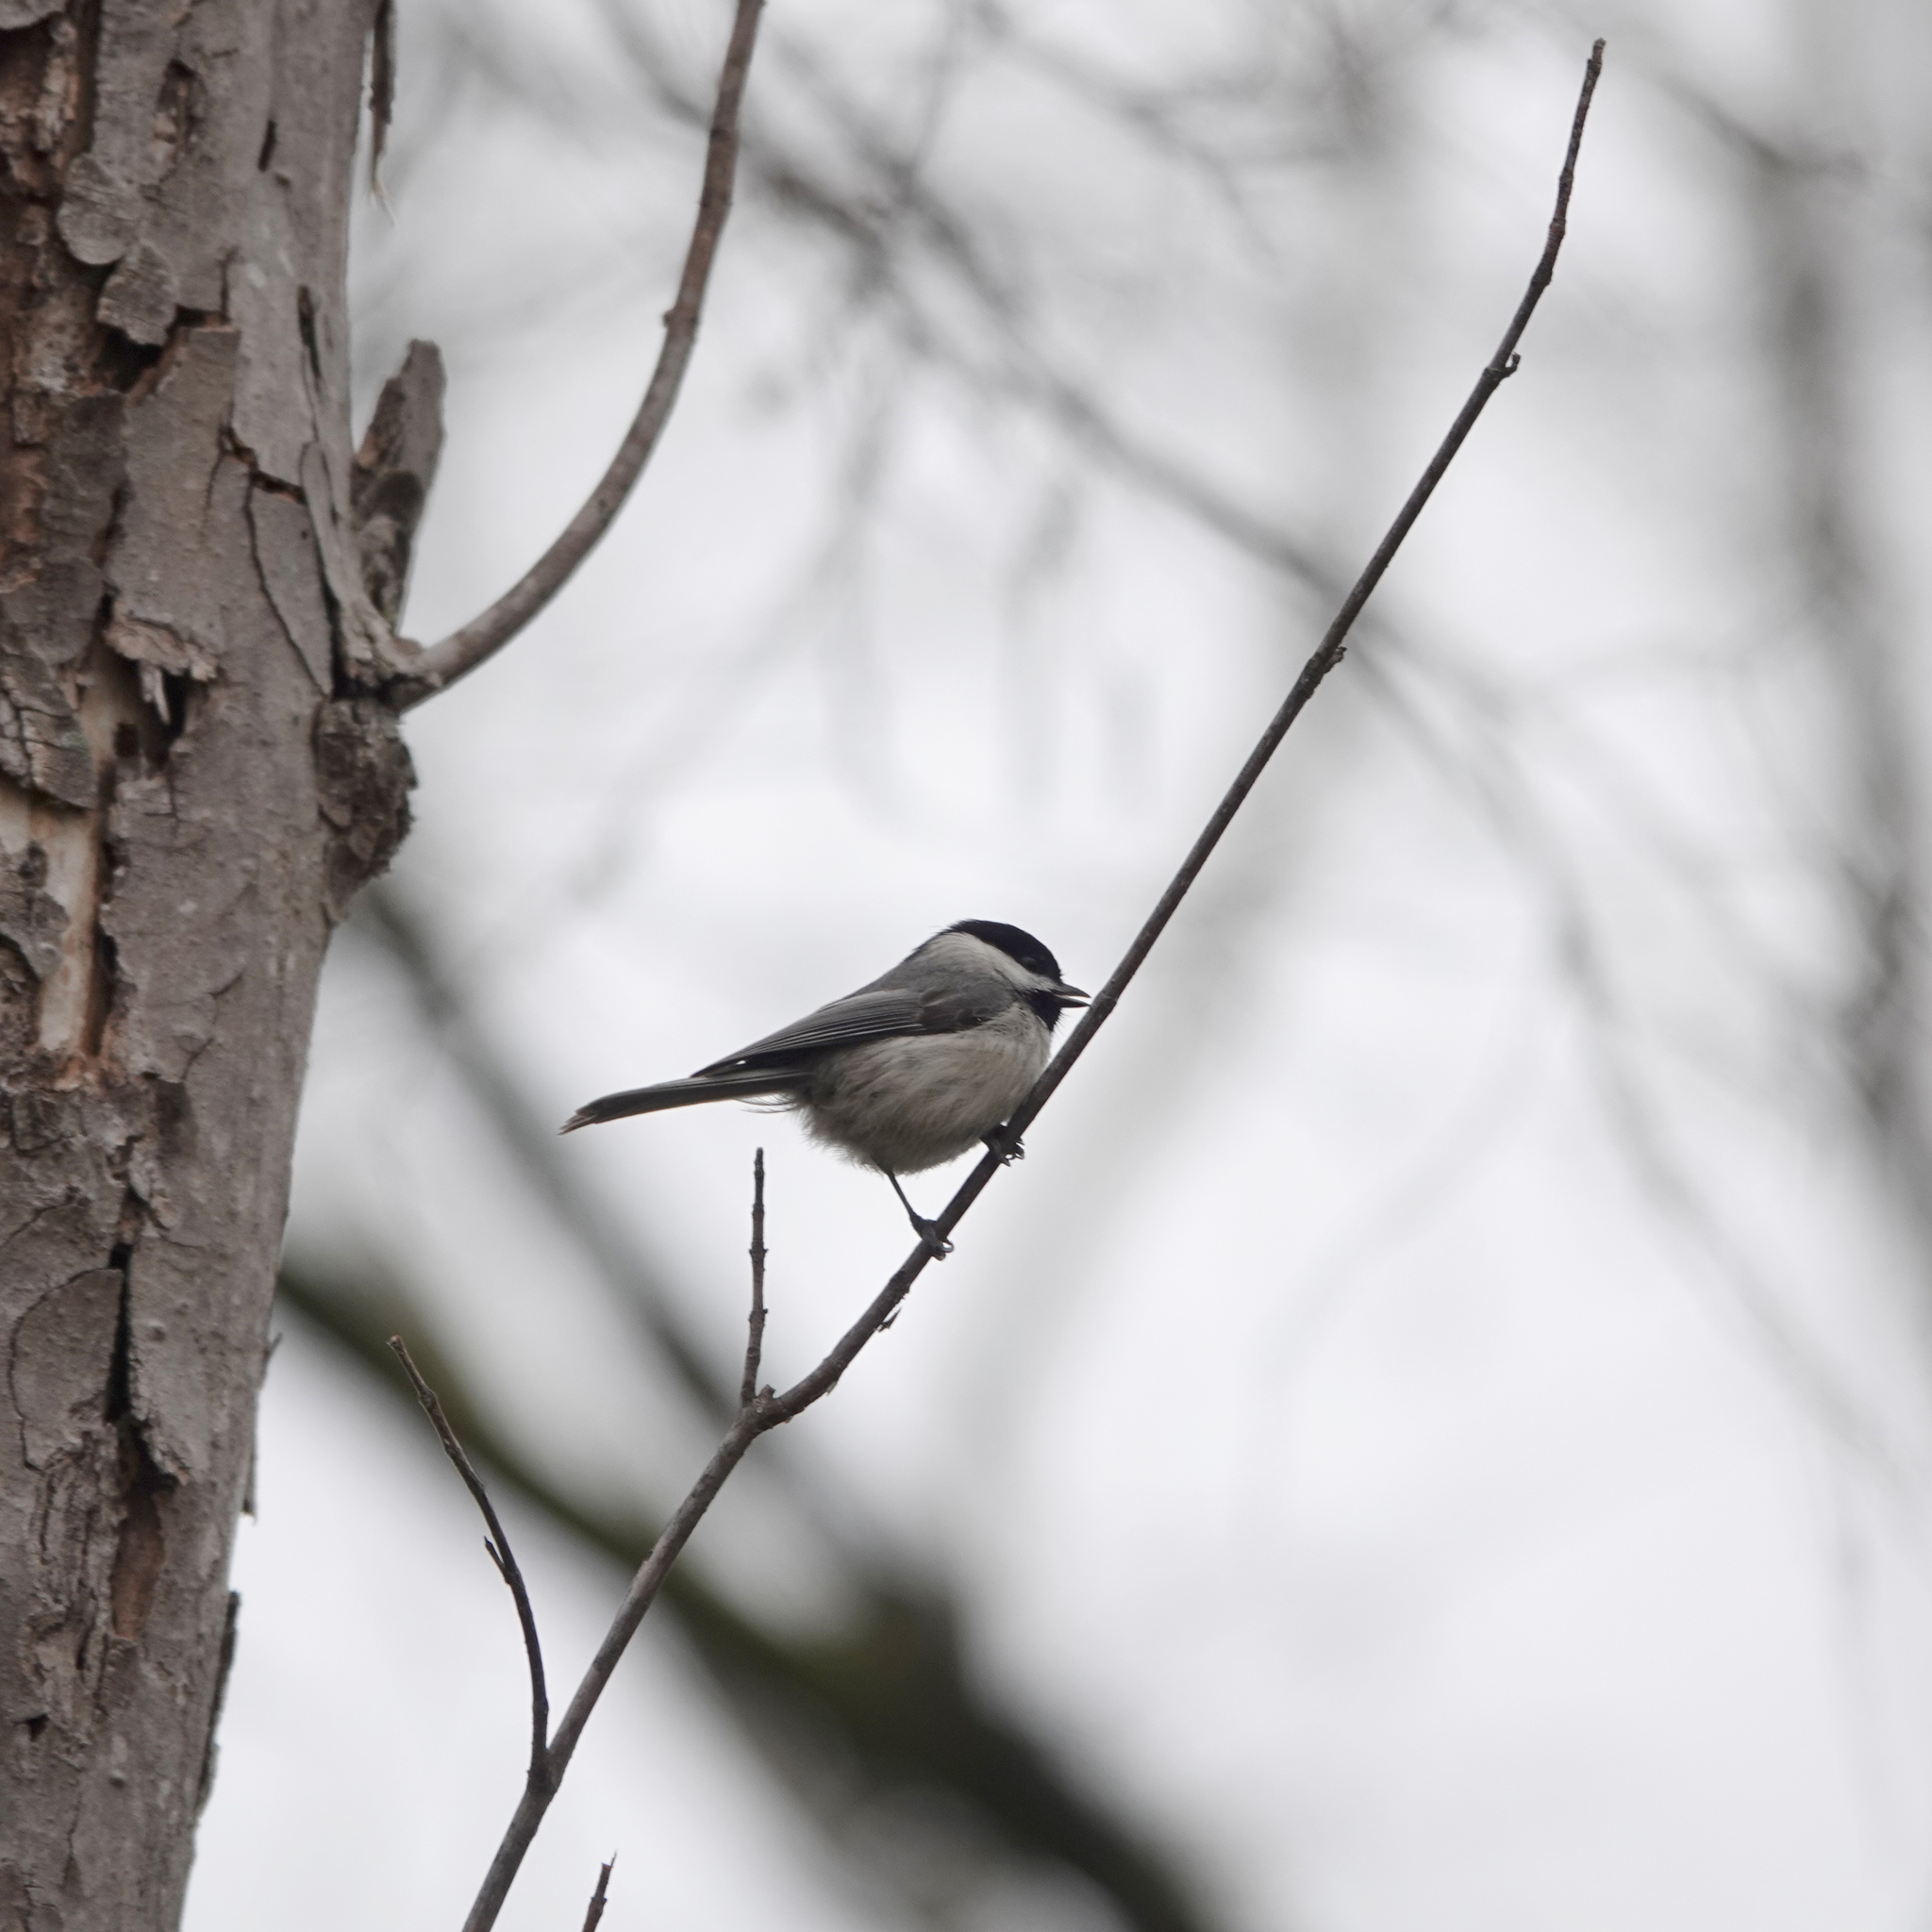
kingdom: Animalia
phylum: Chordata
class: Aves
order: Passeriformes
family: Paridae
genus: Poecile
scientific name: Poecile carolinensis
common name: Carolina chickadee
